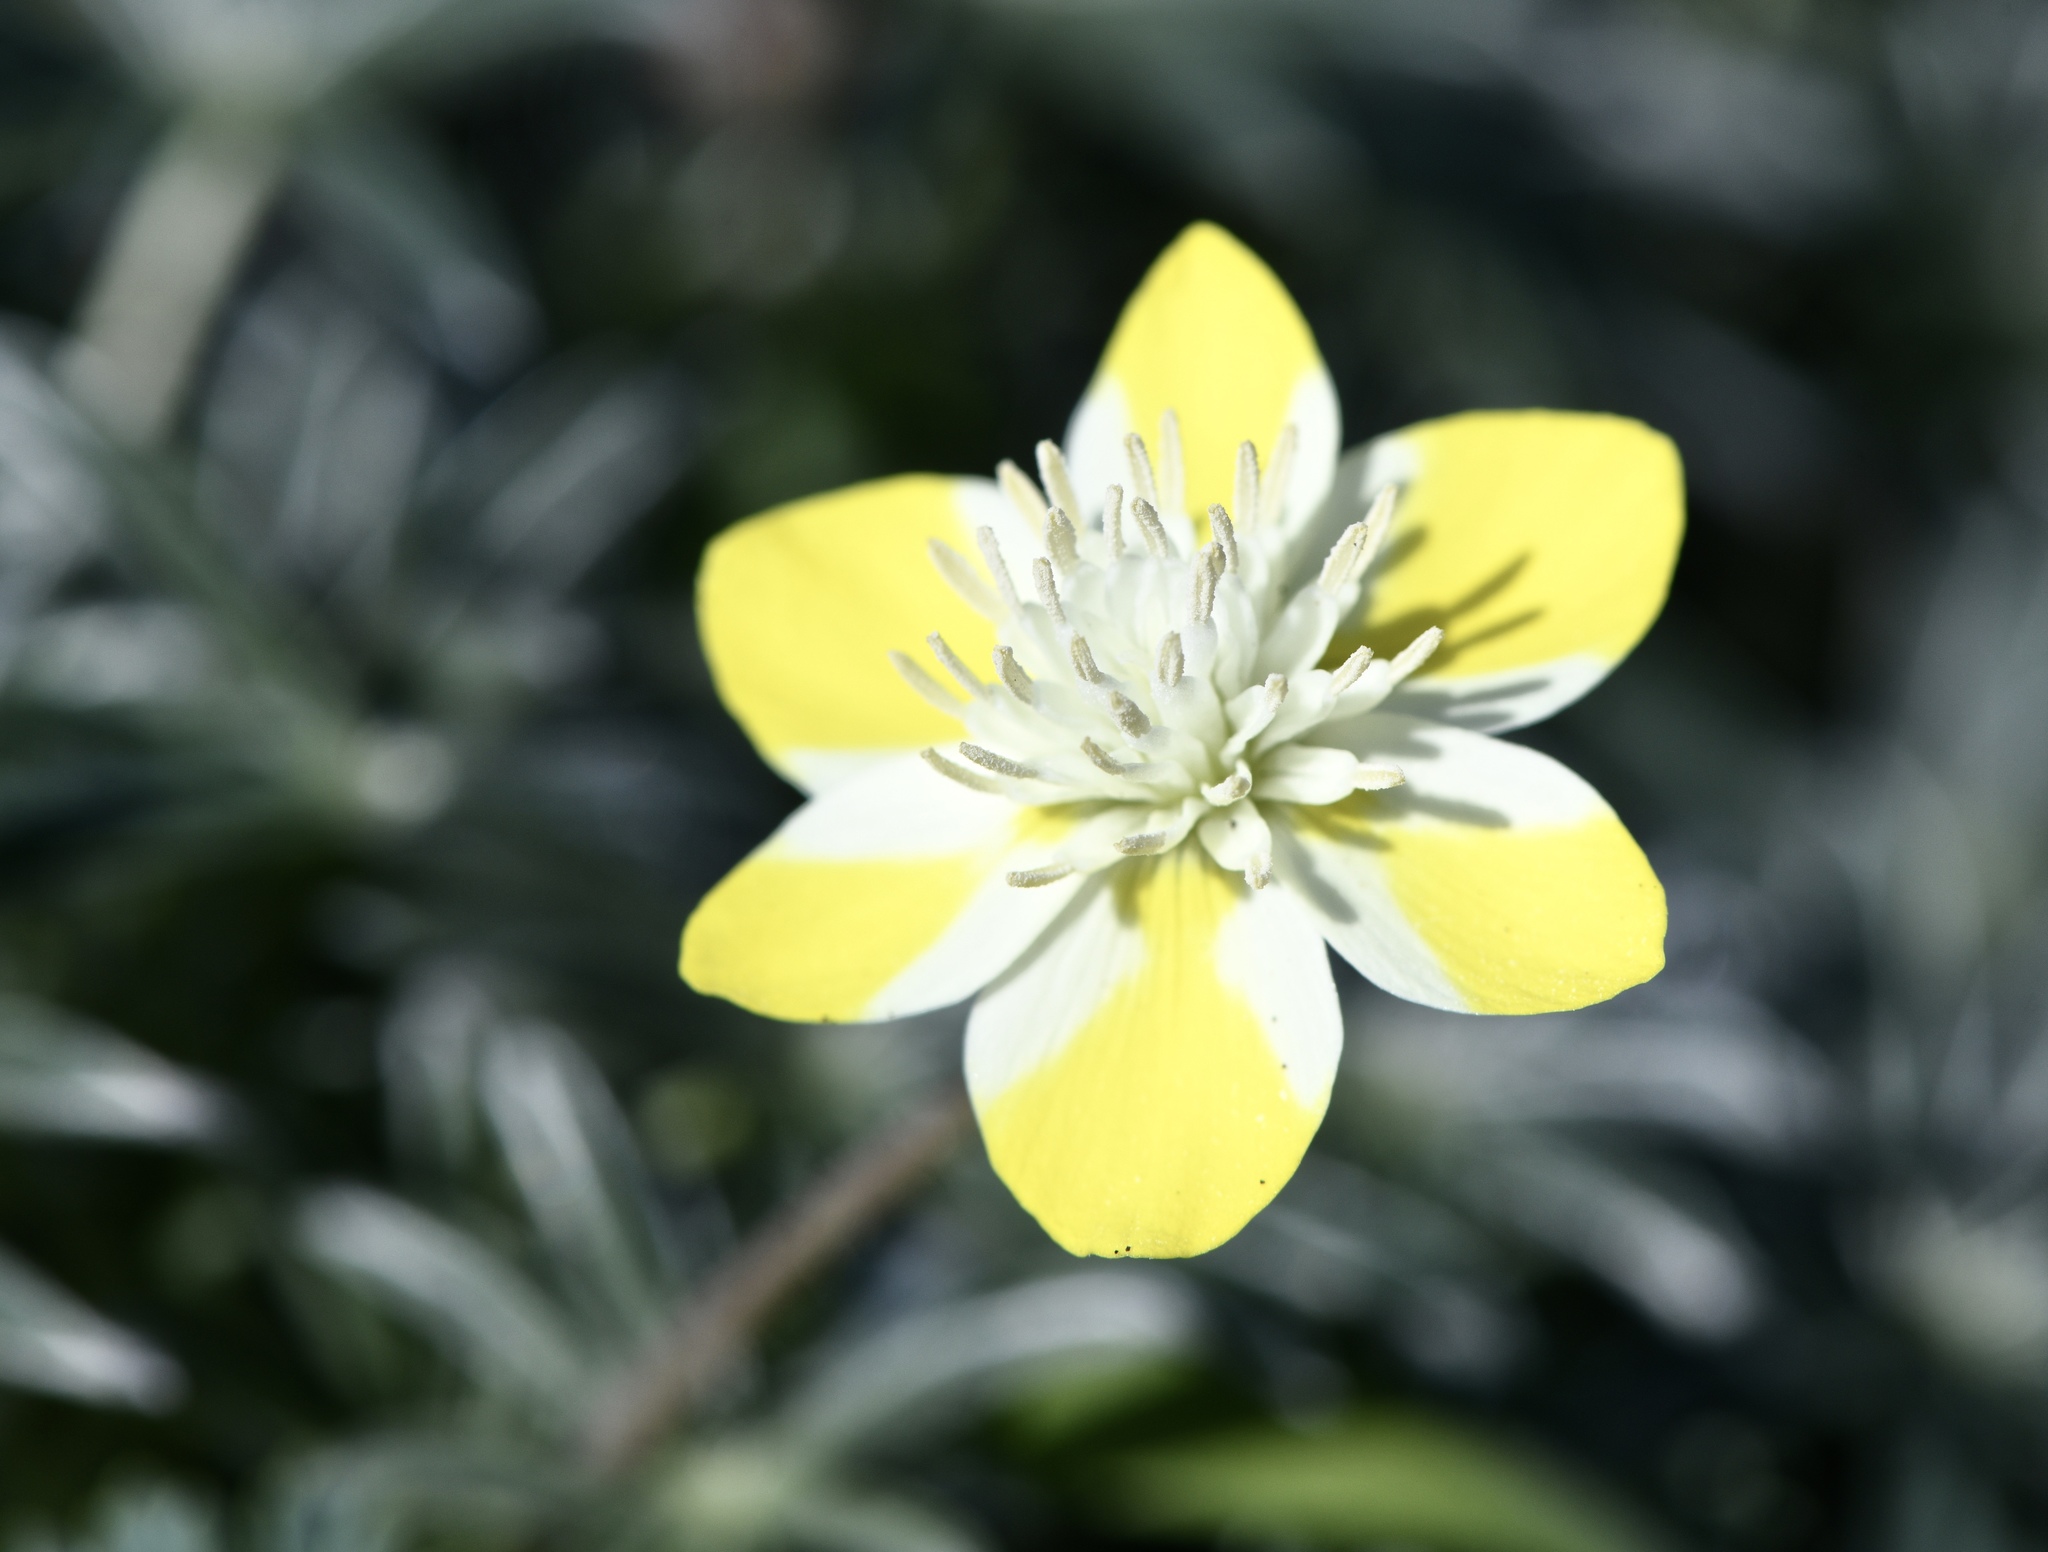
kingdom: Plantae
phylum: Tracheophyta
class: Magnoliopsida
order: Ranunculales
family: Papaveraceae
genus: Platystemon
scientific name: Platystemon californicus
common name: Cream-cups
